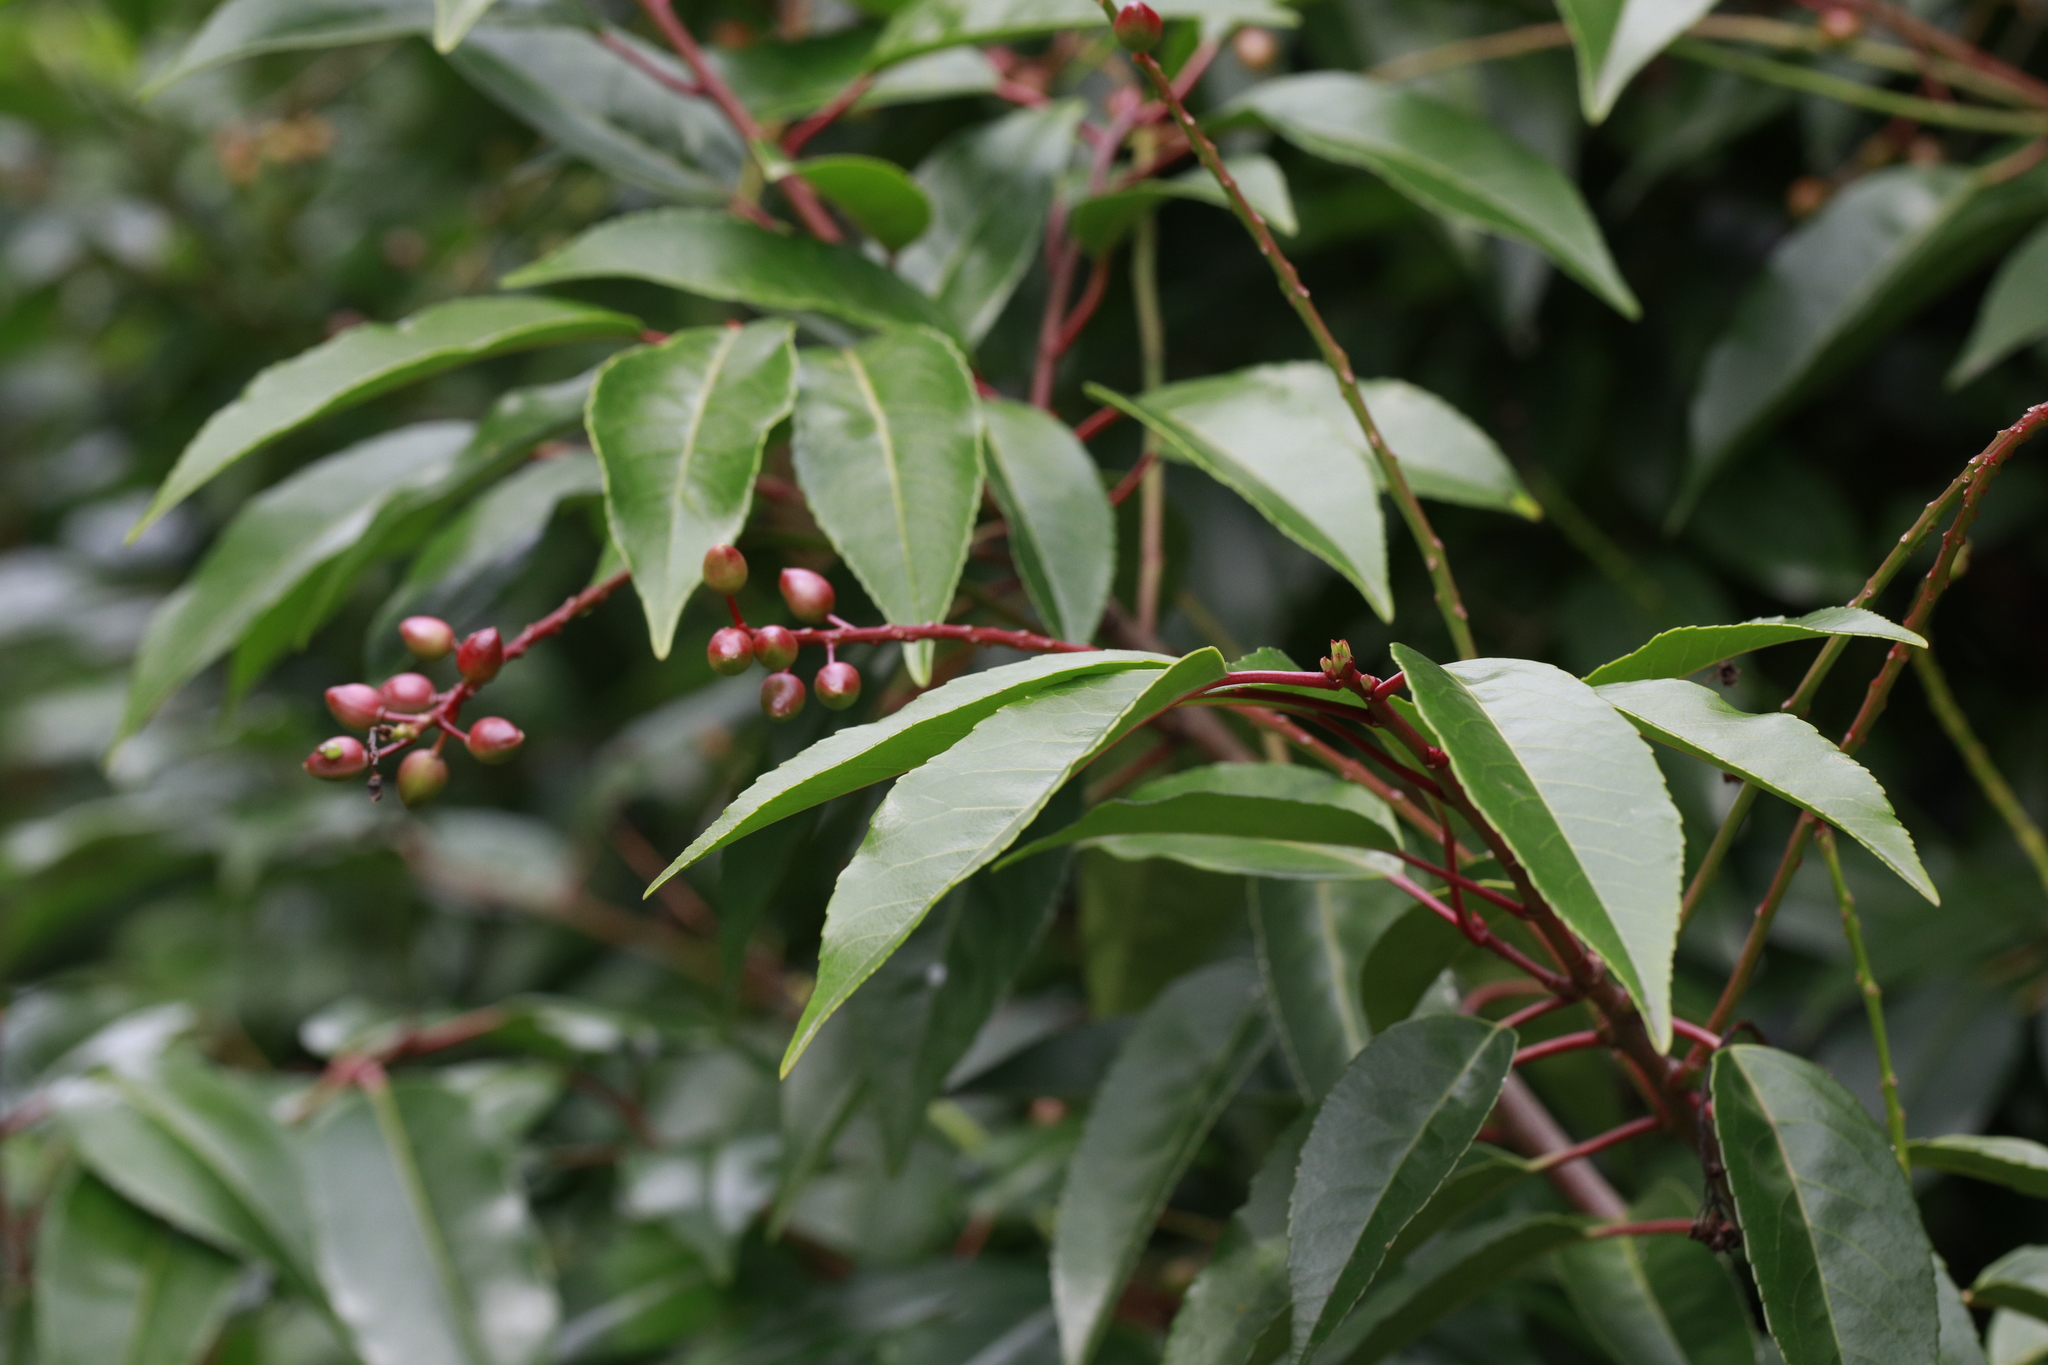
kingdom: Plantae
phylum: Tracheophyta
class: Magnoliopsida
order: Rosales
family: Rosaceae
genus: Prunus
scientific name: Prunus lusitanica
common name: Portugal laurel
